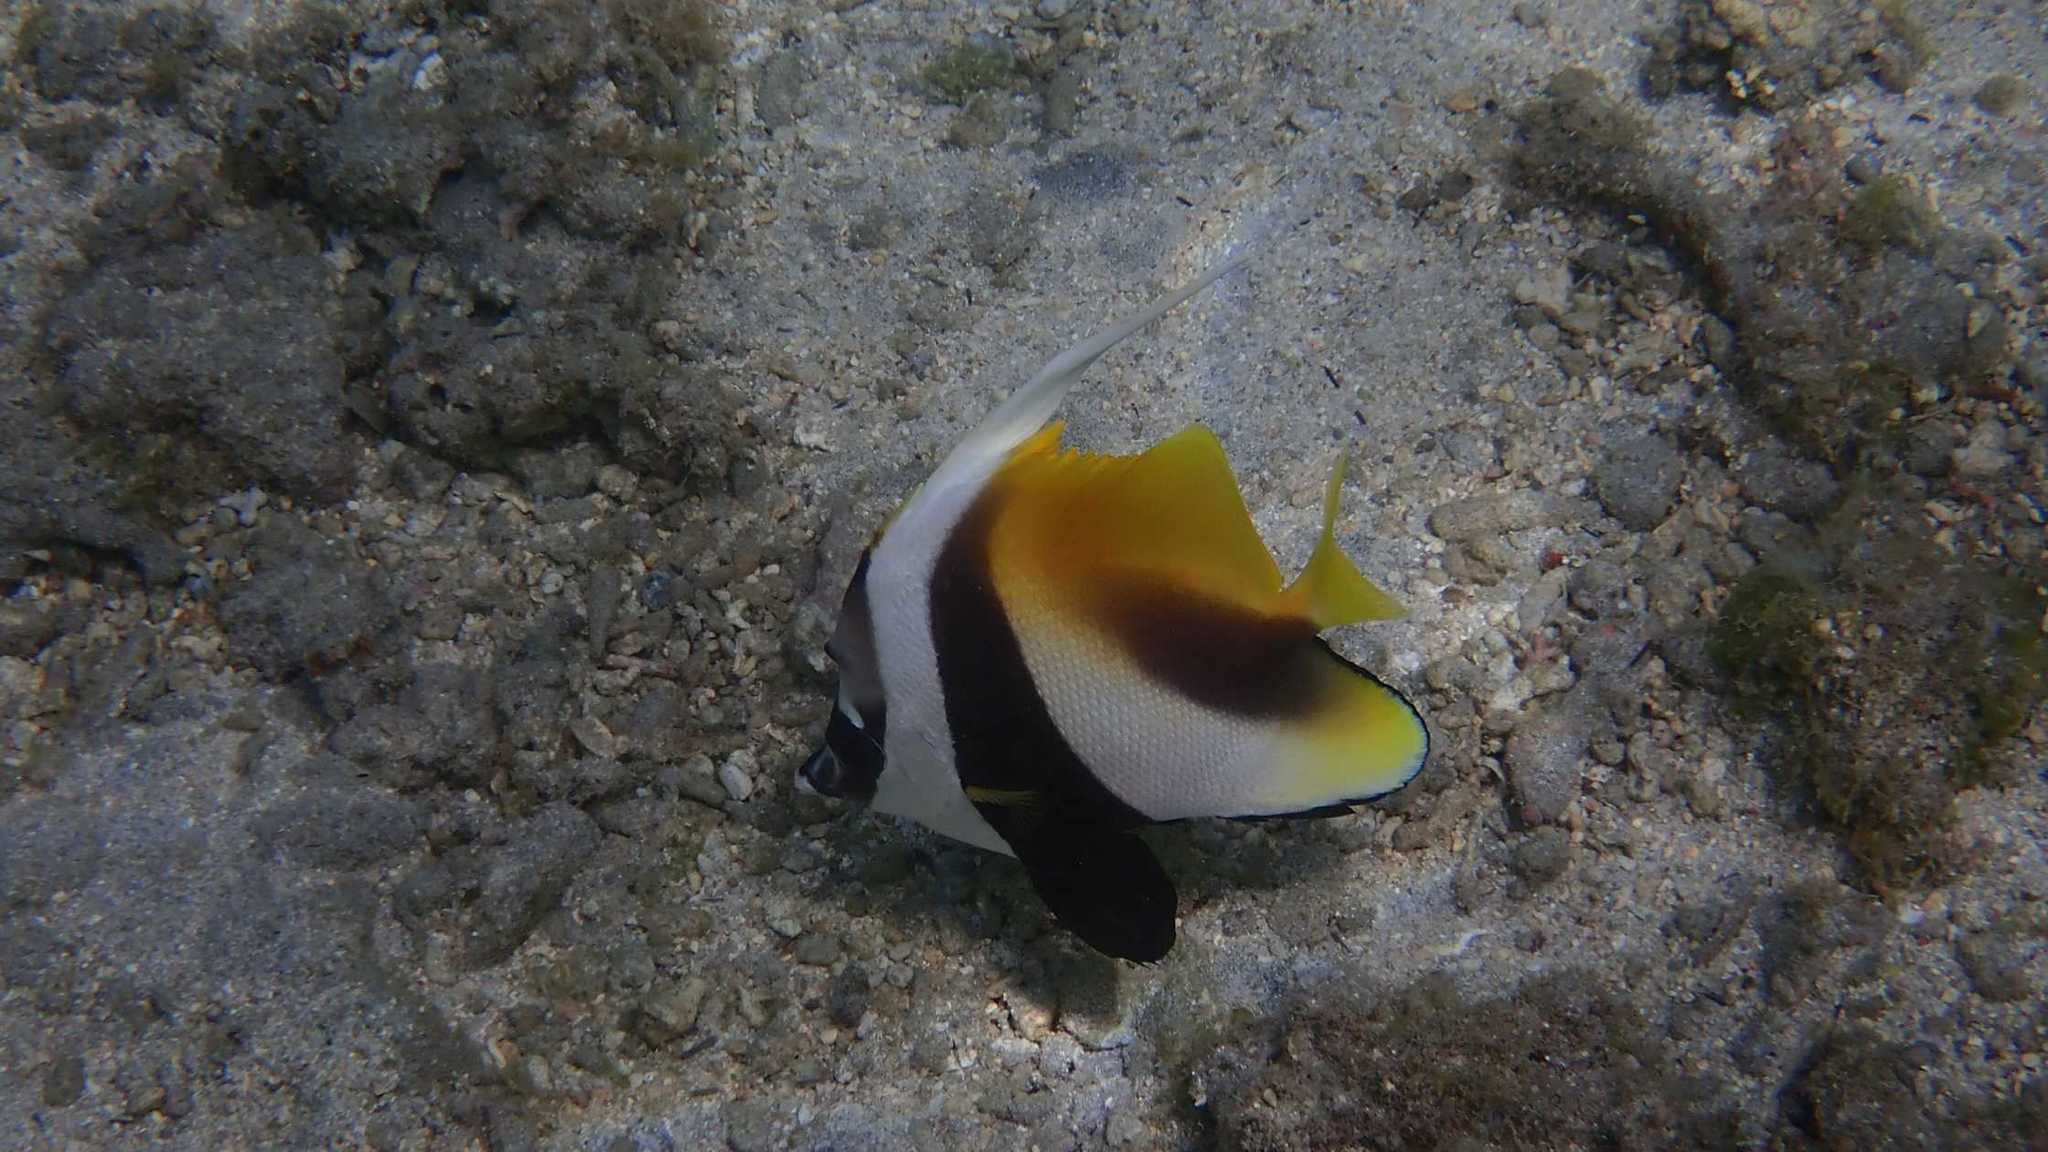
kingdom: Animalia
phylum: Chordata
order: Perciformes
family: Chaetodontidae
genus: Heniochus
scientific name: Heniochus monoceros
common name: Masked bannerfish
